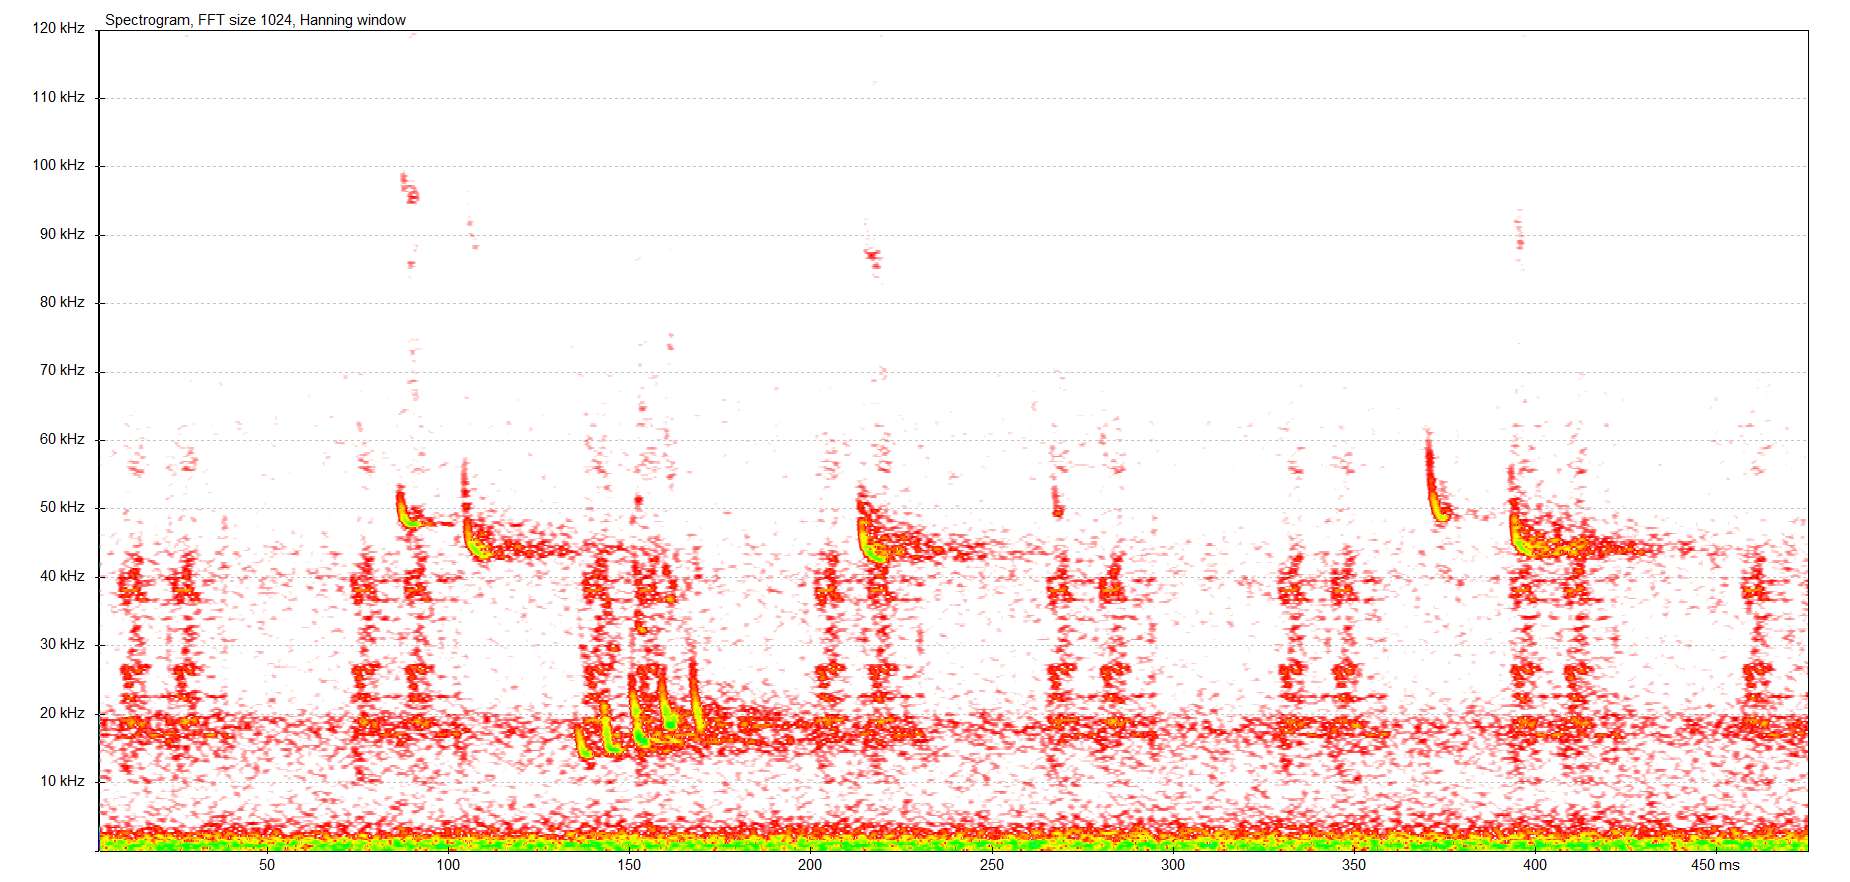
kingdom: Animalia
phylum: Chordata
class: Mammalia
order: Chiroptera
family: Vespertilionidae
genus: Pipistrellus
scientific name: Pipistrellus pipistrellus
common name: Common pipistrelle
